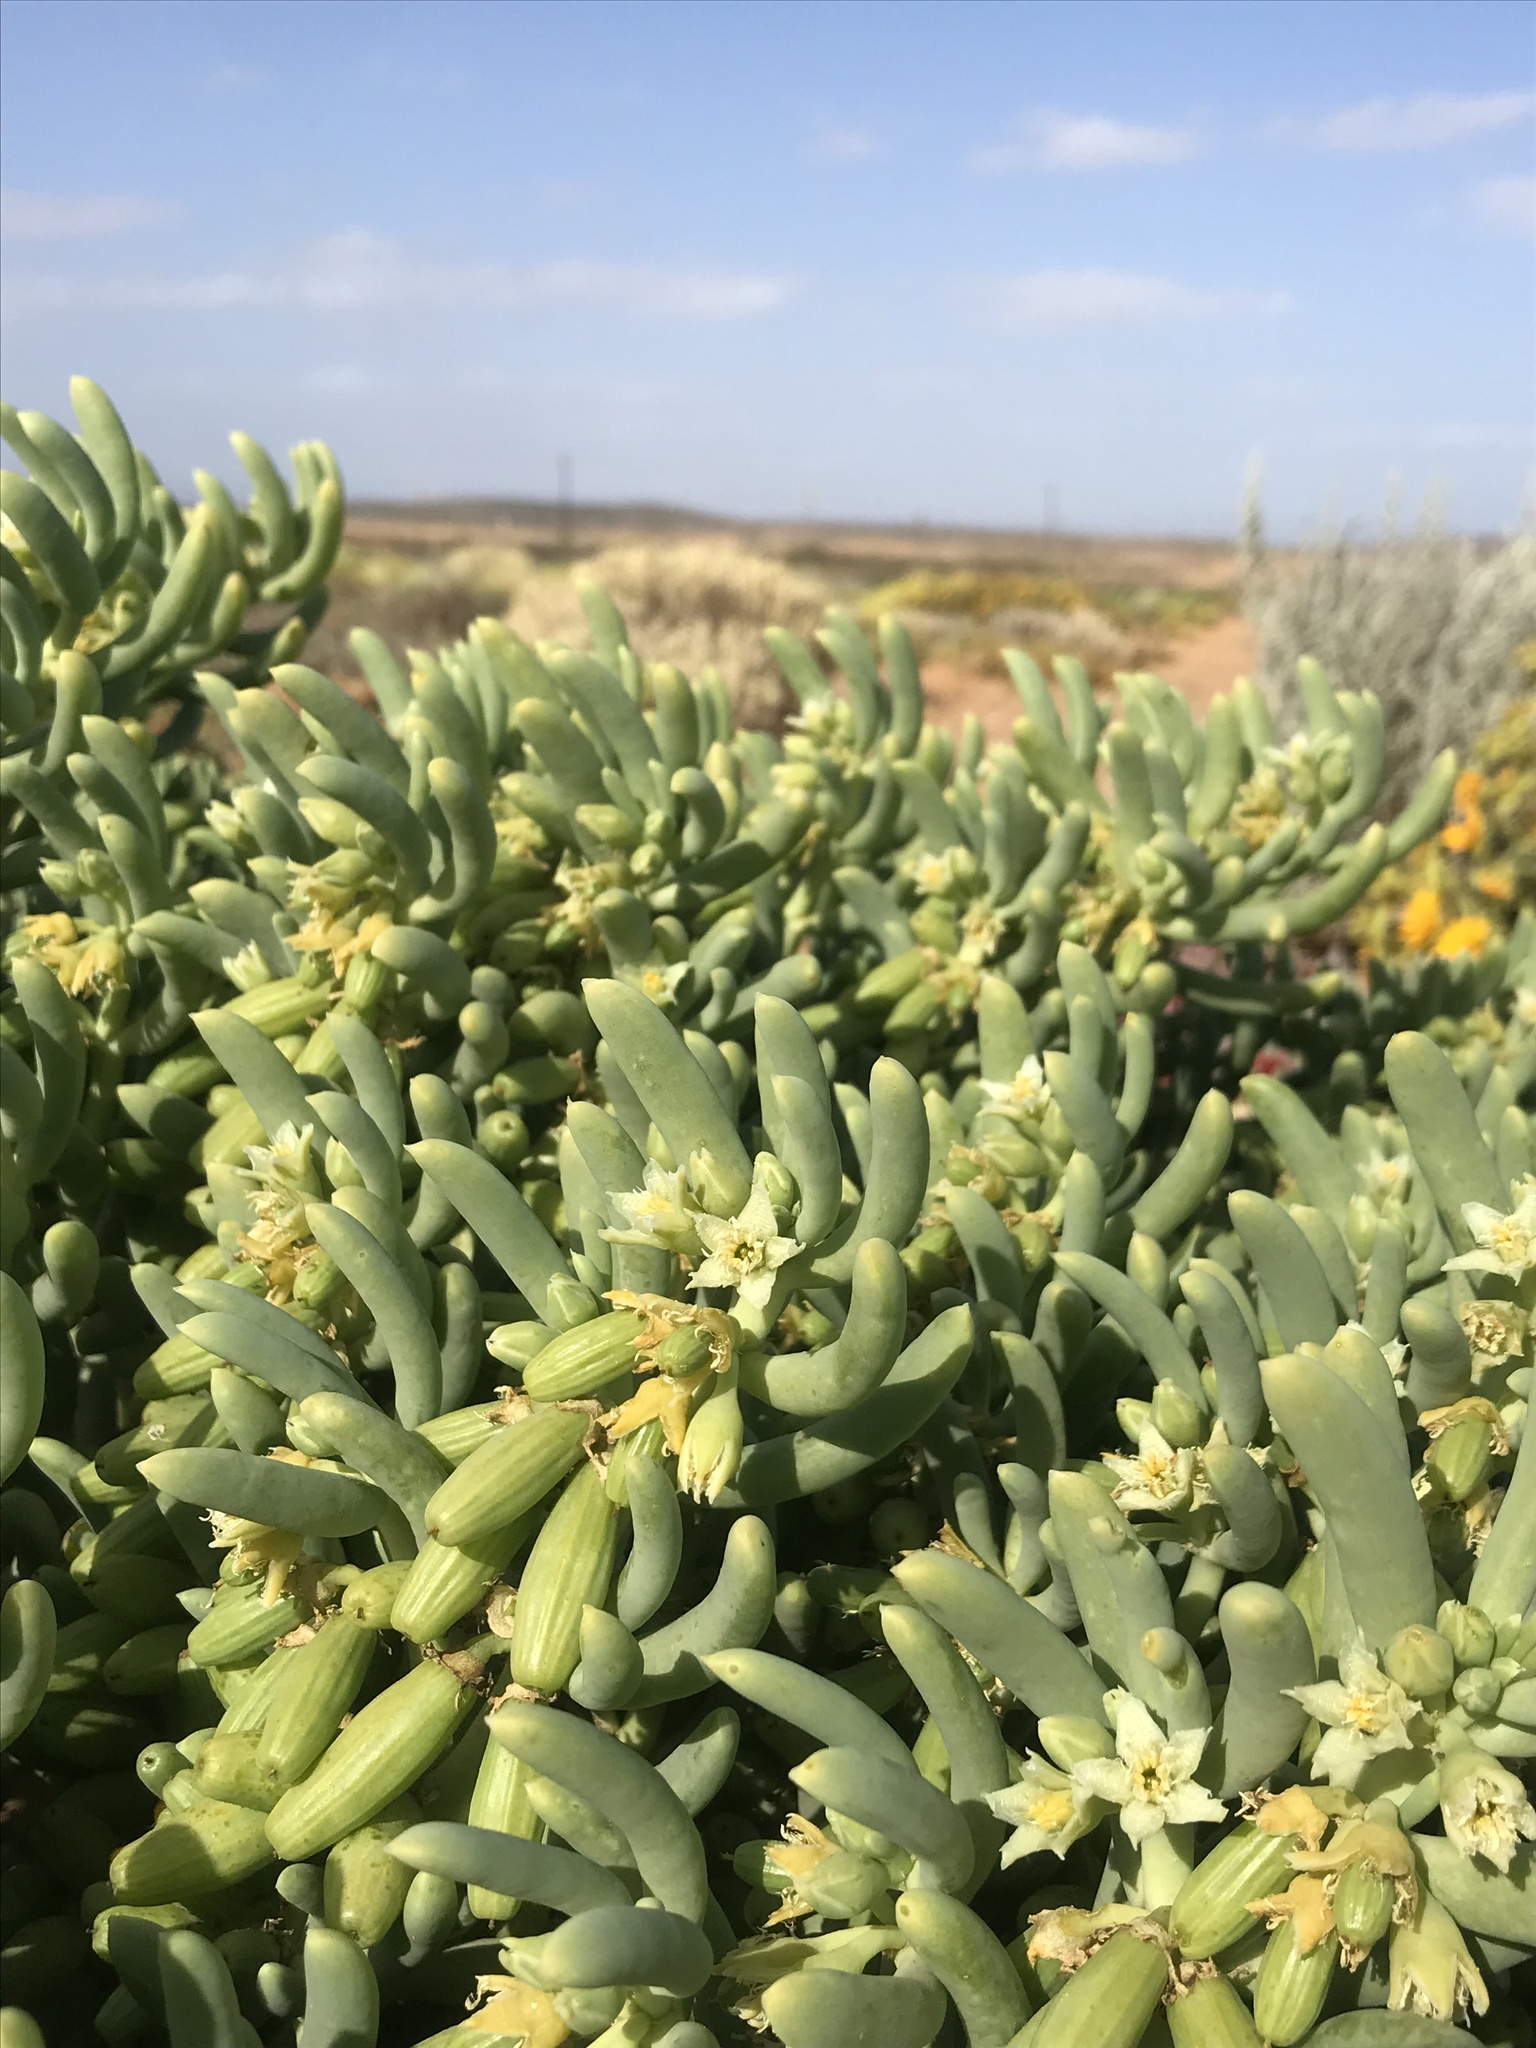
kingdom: Plantae
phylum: Tracheophyta
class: Magnoliopsida
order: Zygophyllales
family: Zygophyllaceae
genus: Augea
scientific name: Augea capensis
